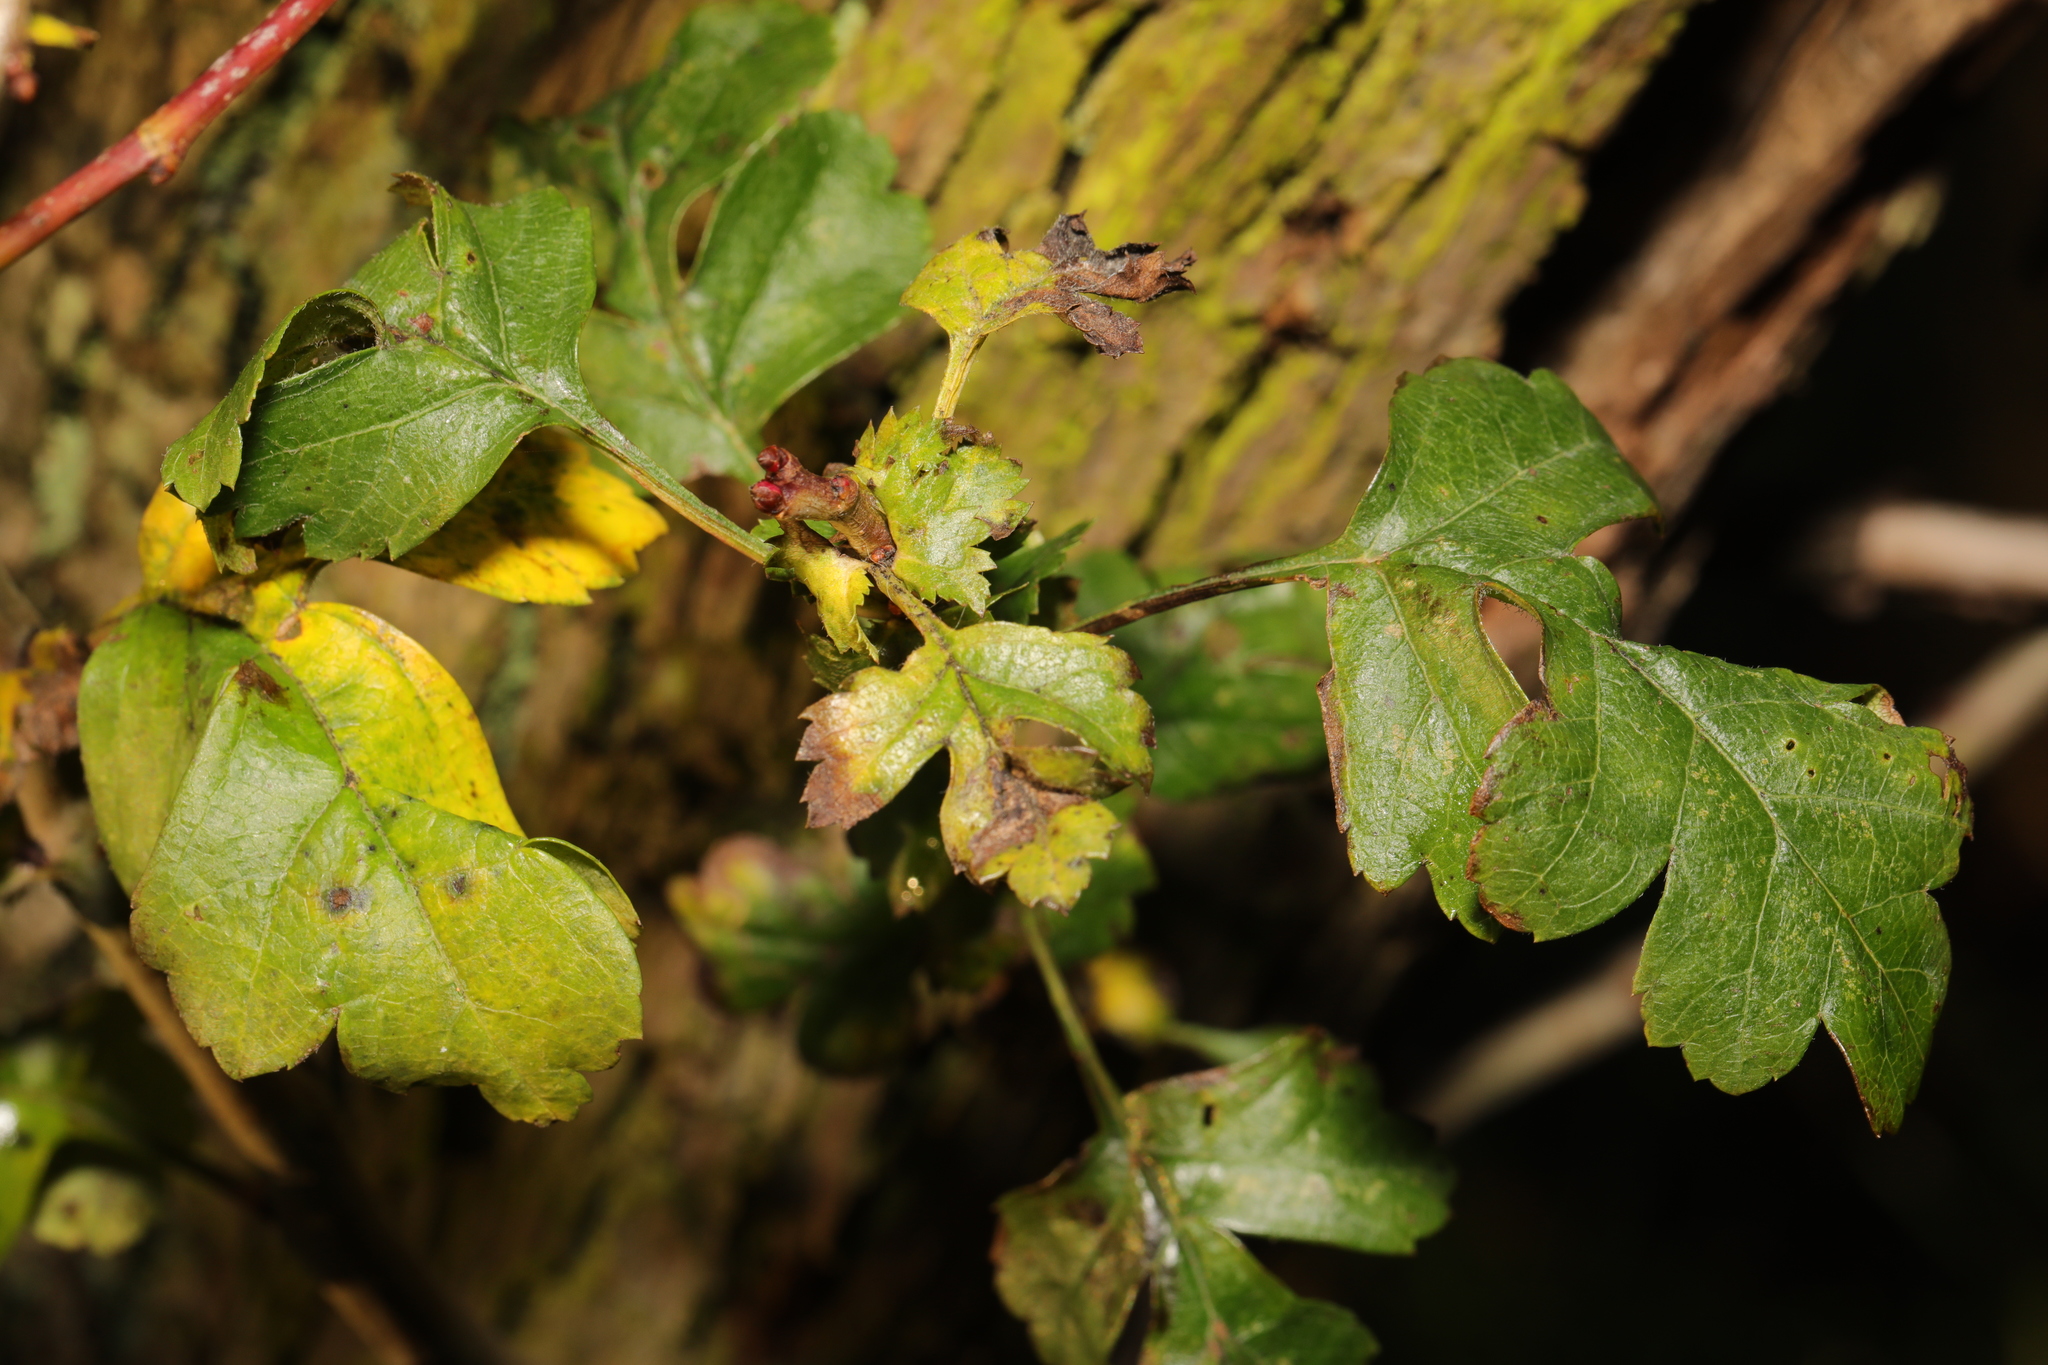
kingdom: Plantae
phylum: Tracheophyta
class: Magnoliopsida
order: Rosales
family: Rosaceae
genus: Crataegus
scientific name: Crataegus monogyna
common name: Hawthorn
